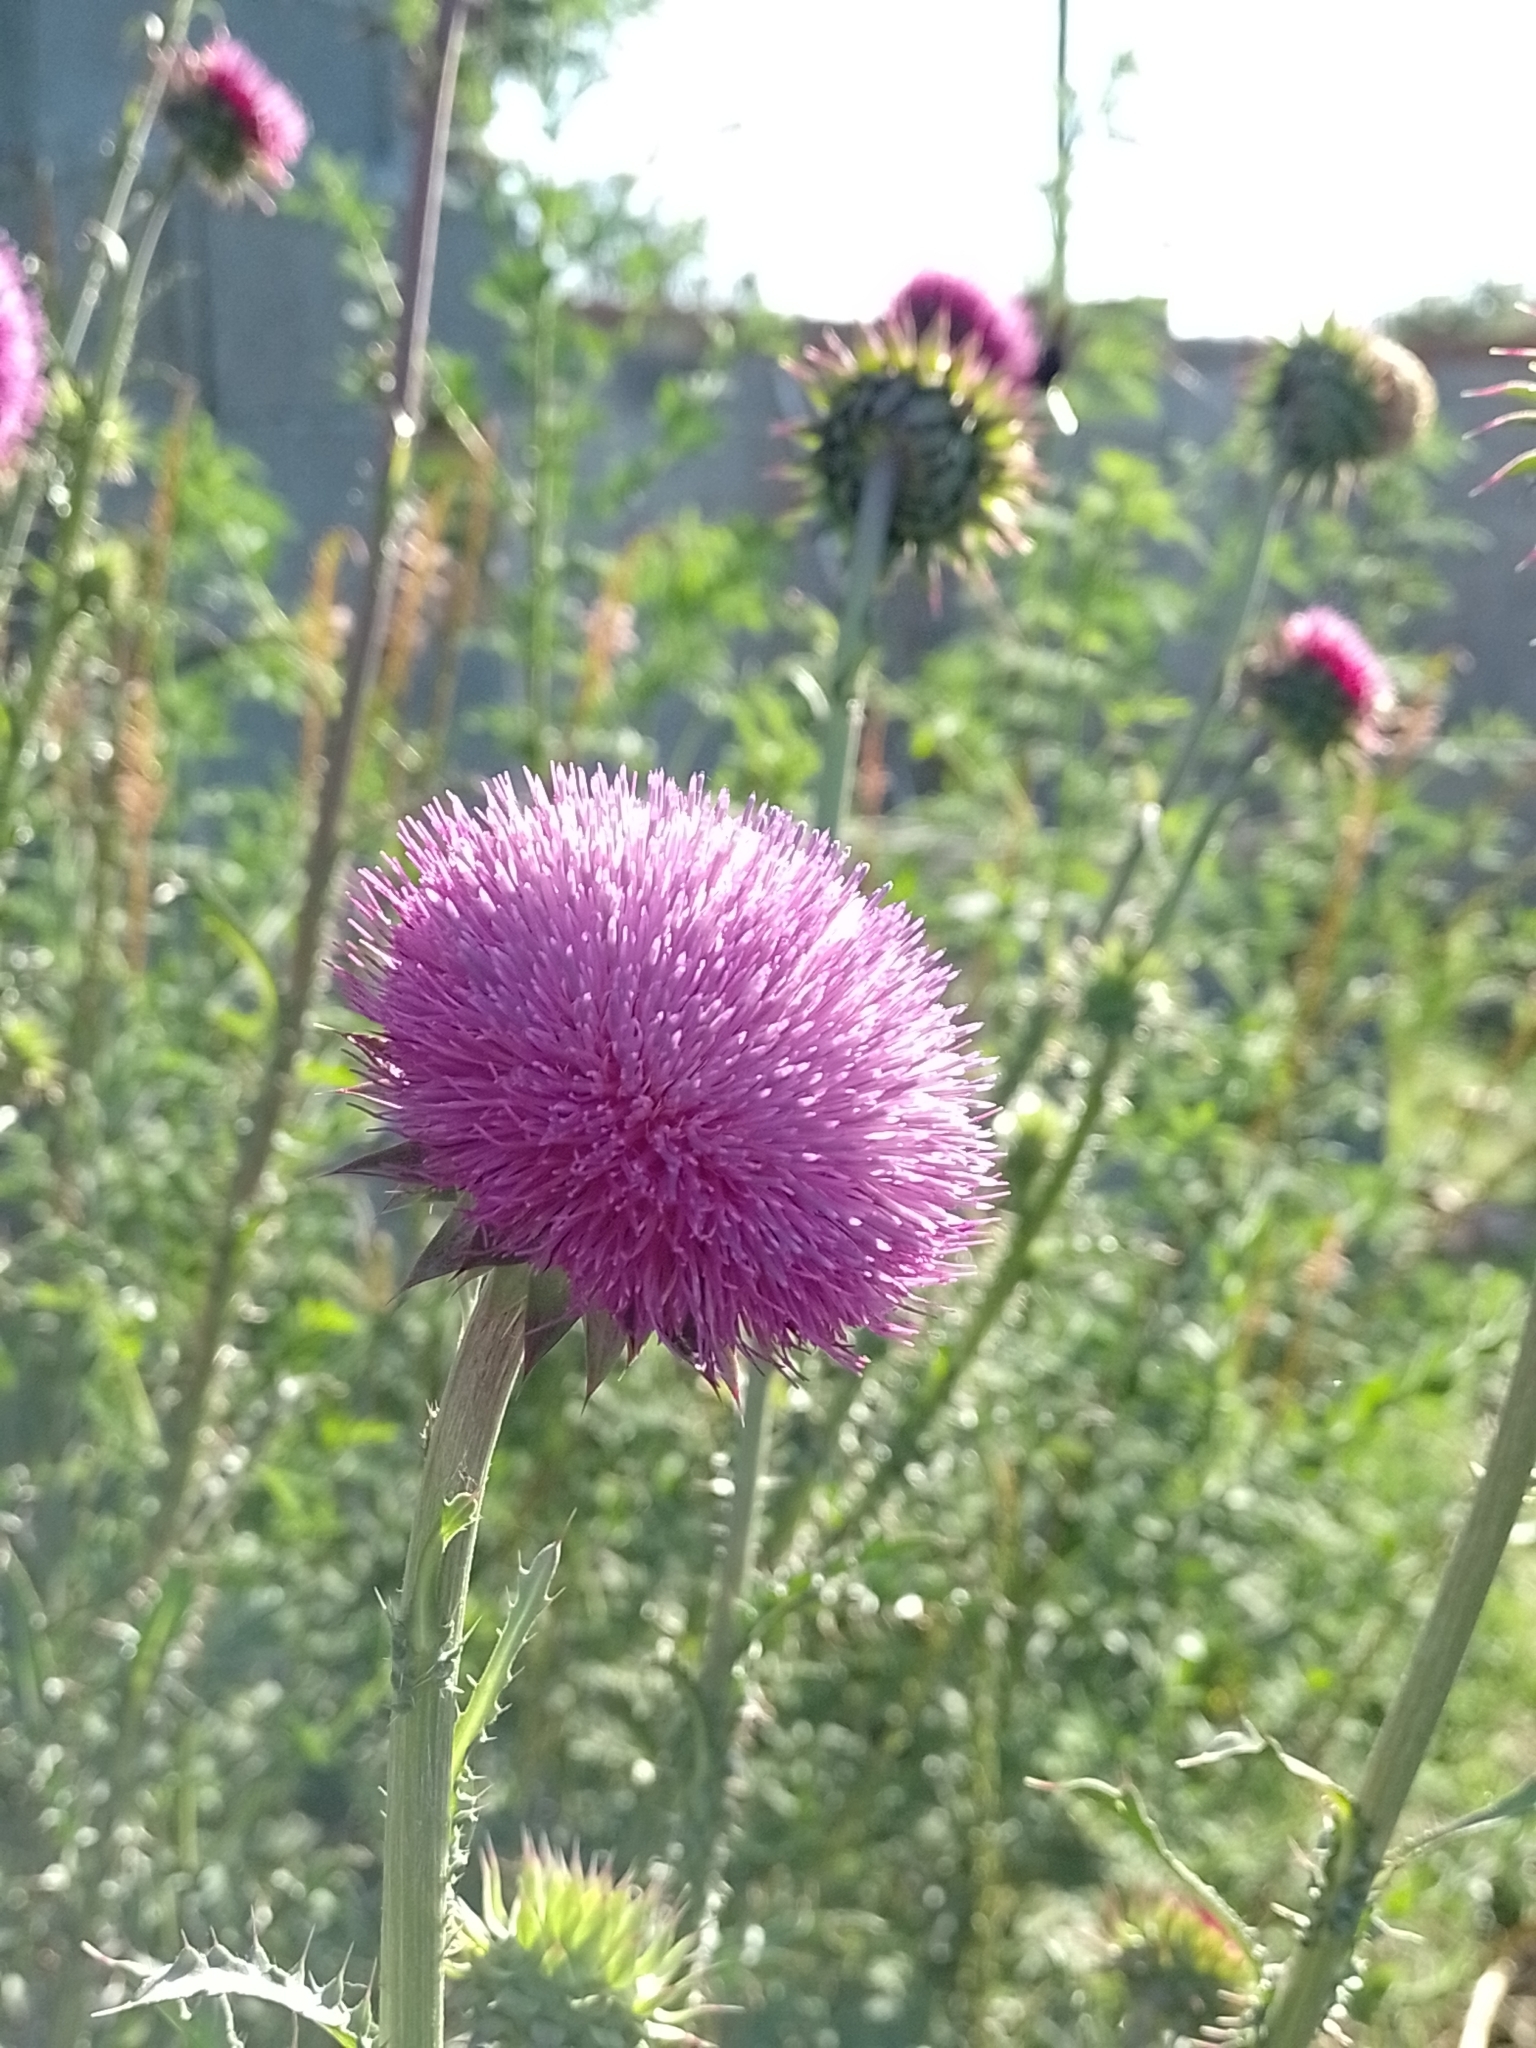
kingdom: Plantae
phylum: Tracheophyta
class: Magnoliopsida
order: Asterales
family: Asteraceae
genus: Carduus
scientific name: Carduus nutans
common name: Musk thistle
